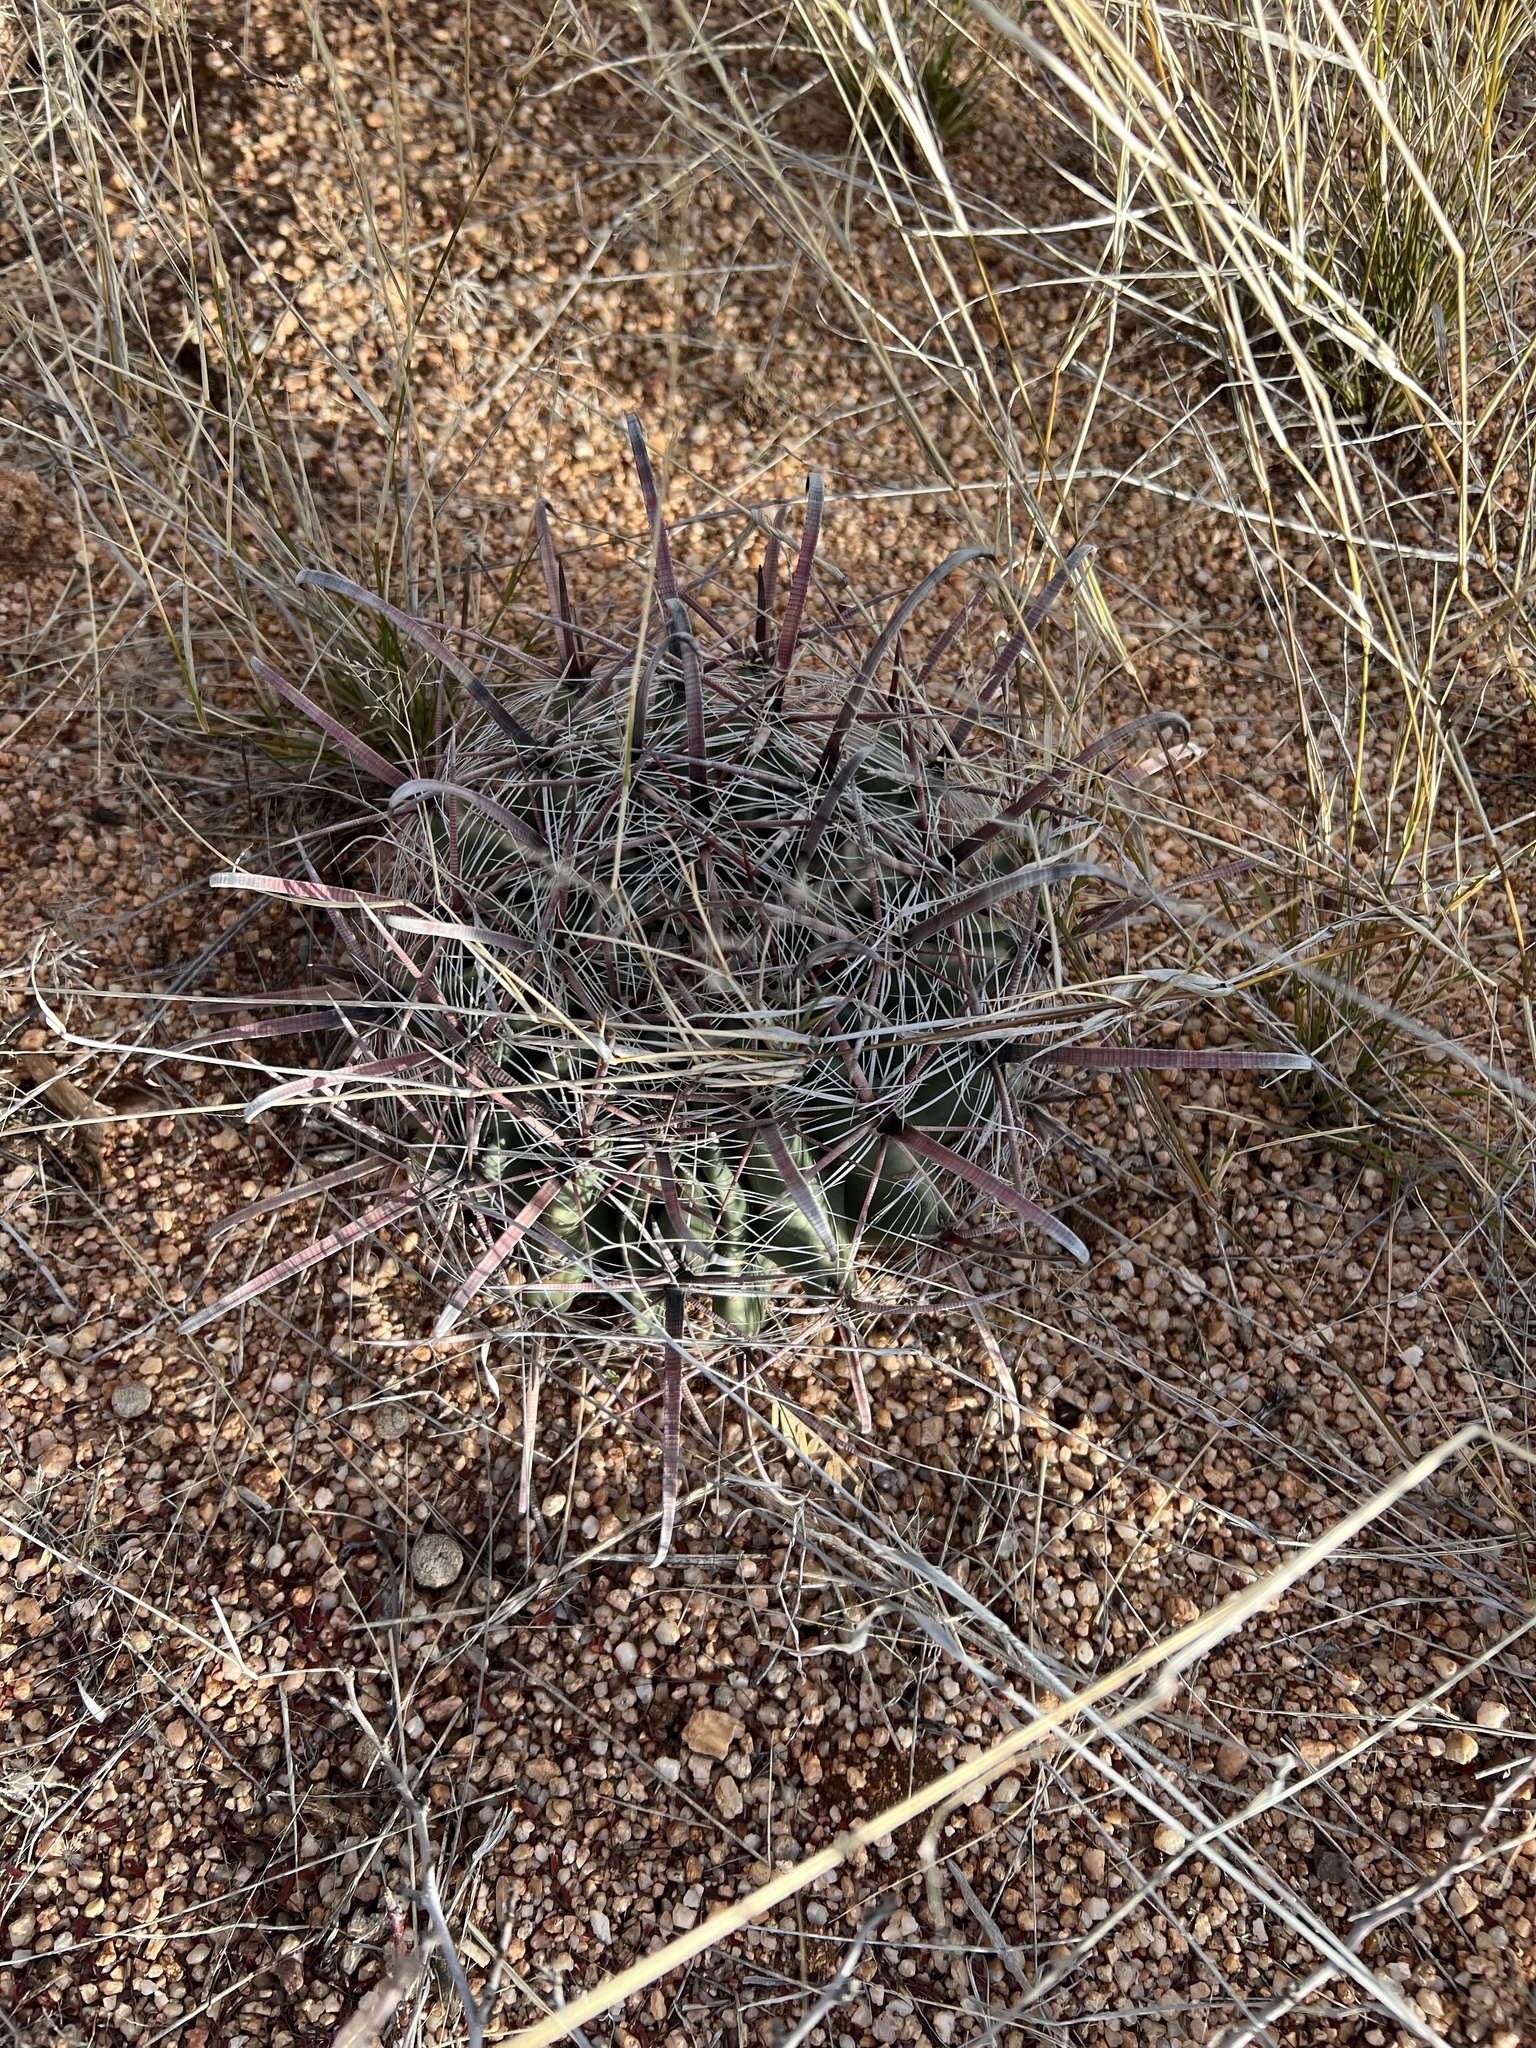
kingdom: Plantae
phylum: Tracheophyta
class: Magnoliopsida
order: Caryophyllales
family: Cactaceae
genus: Ferocactus
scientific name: Ferocactus wislizeni
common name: Candy barrel cactus
